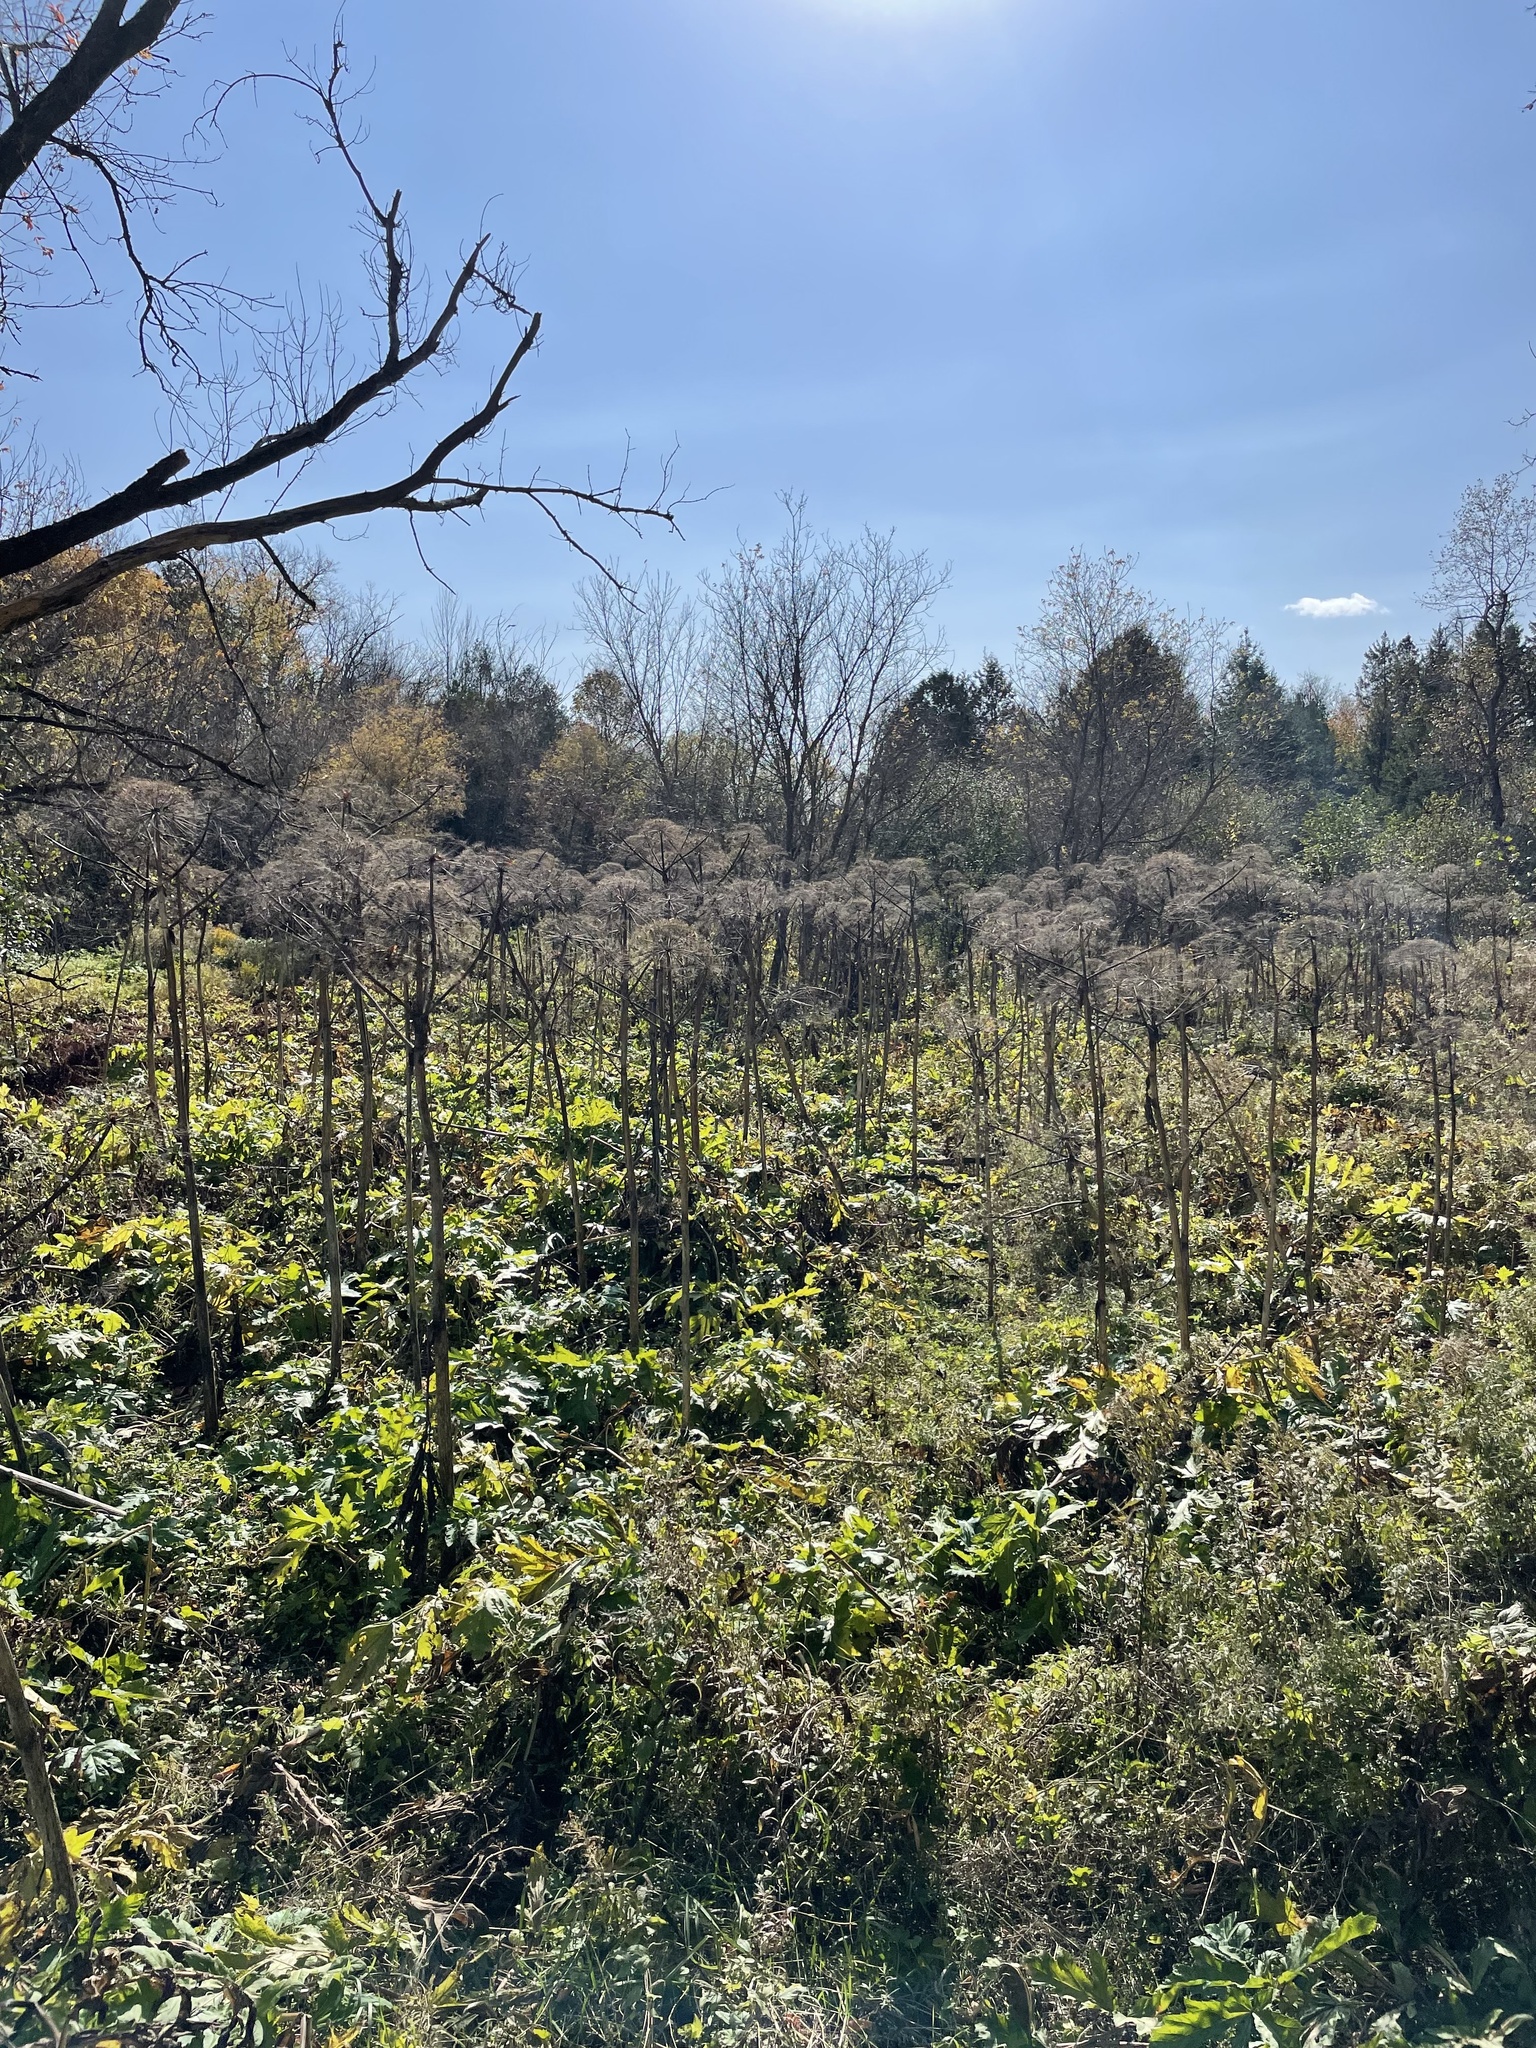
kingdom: Plantae
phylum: Tracheophyta
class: Magnoliopsida
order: Apiales
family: Apiaceae
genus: Heracleum
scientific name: Heracleum mantegazzianum
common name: Giant hogweed
